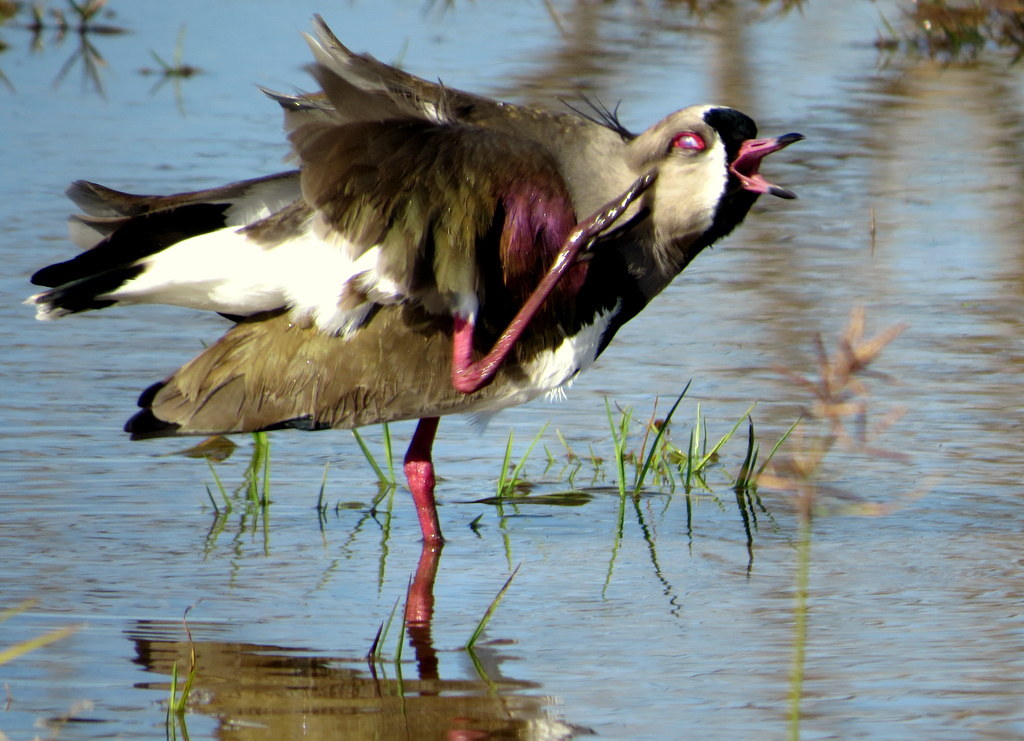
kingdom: Animalia
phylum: Chordata
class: Aves
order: Charadriiformes
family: Charadriidae
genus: Vanellus
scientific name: Vanellus chilensis
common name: Southern lapwing
